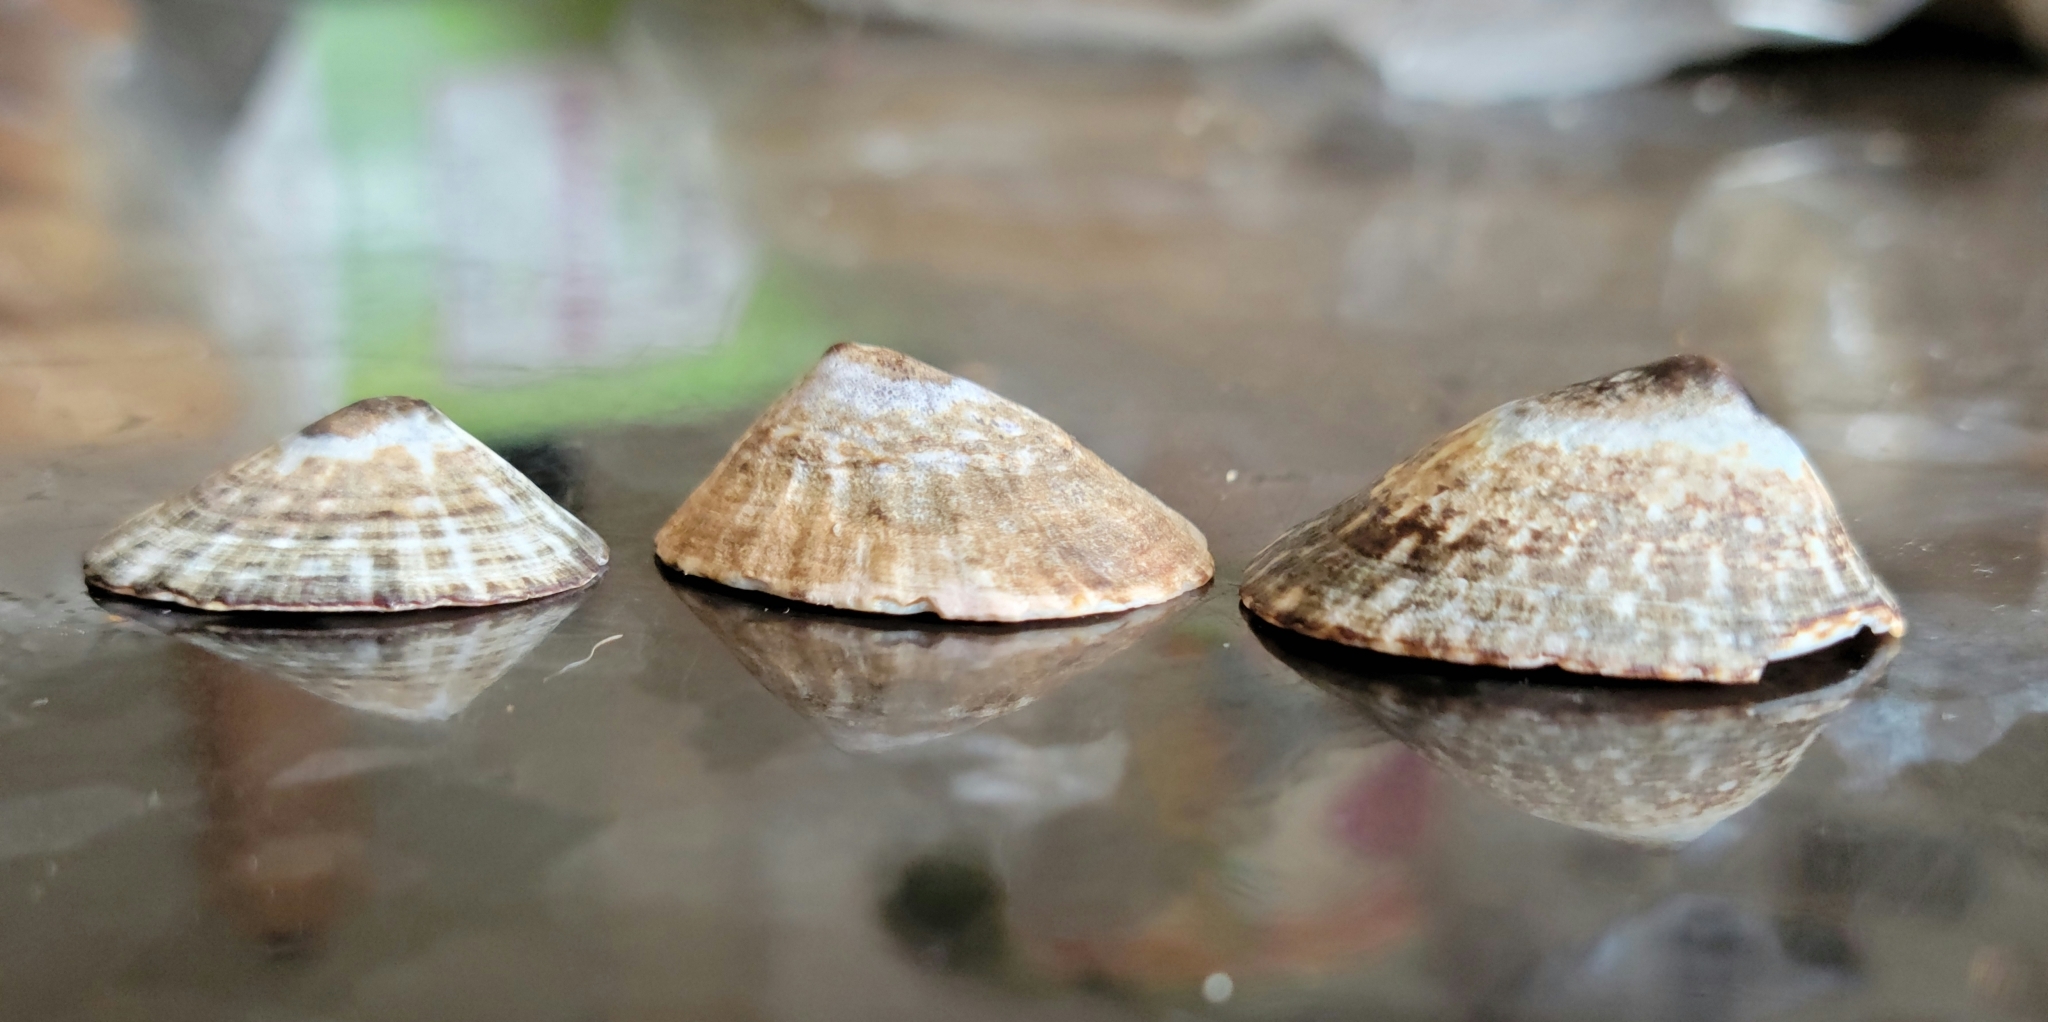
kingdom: Animalia
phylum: Mollusca
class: Gastropoda
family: Lottiidae
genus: Lottia
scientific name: Lottia pelta
